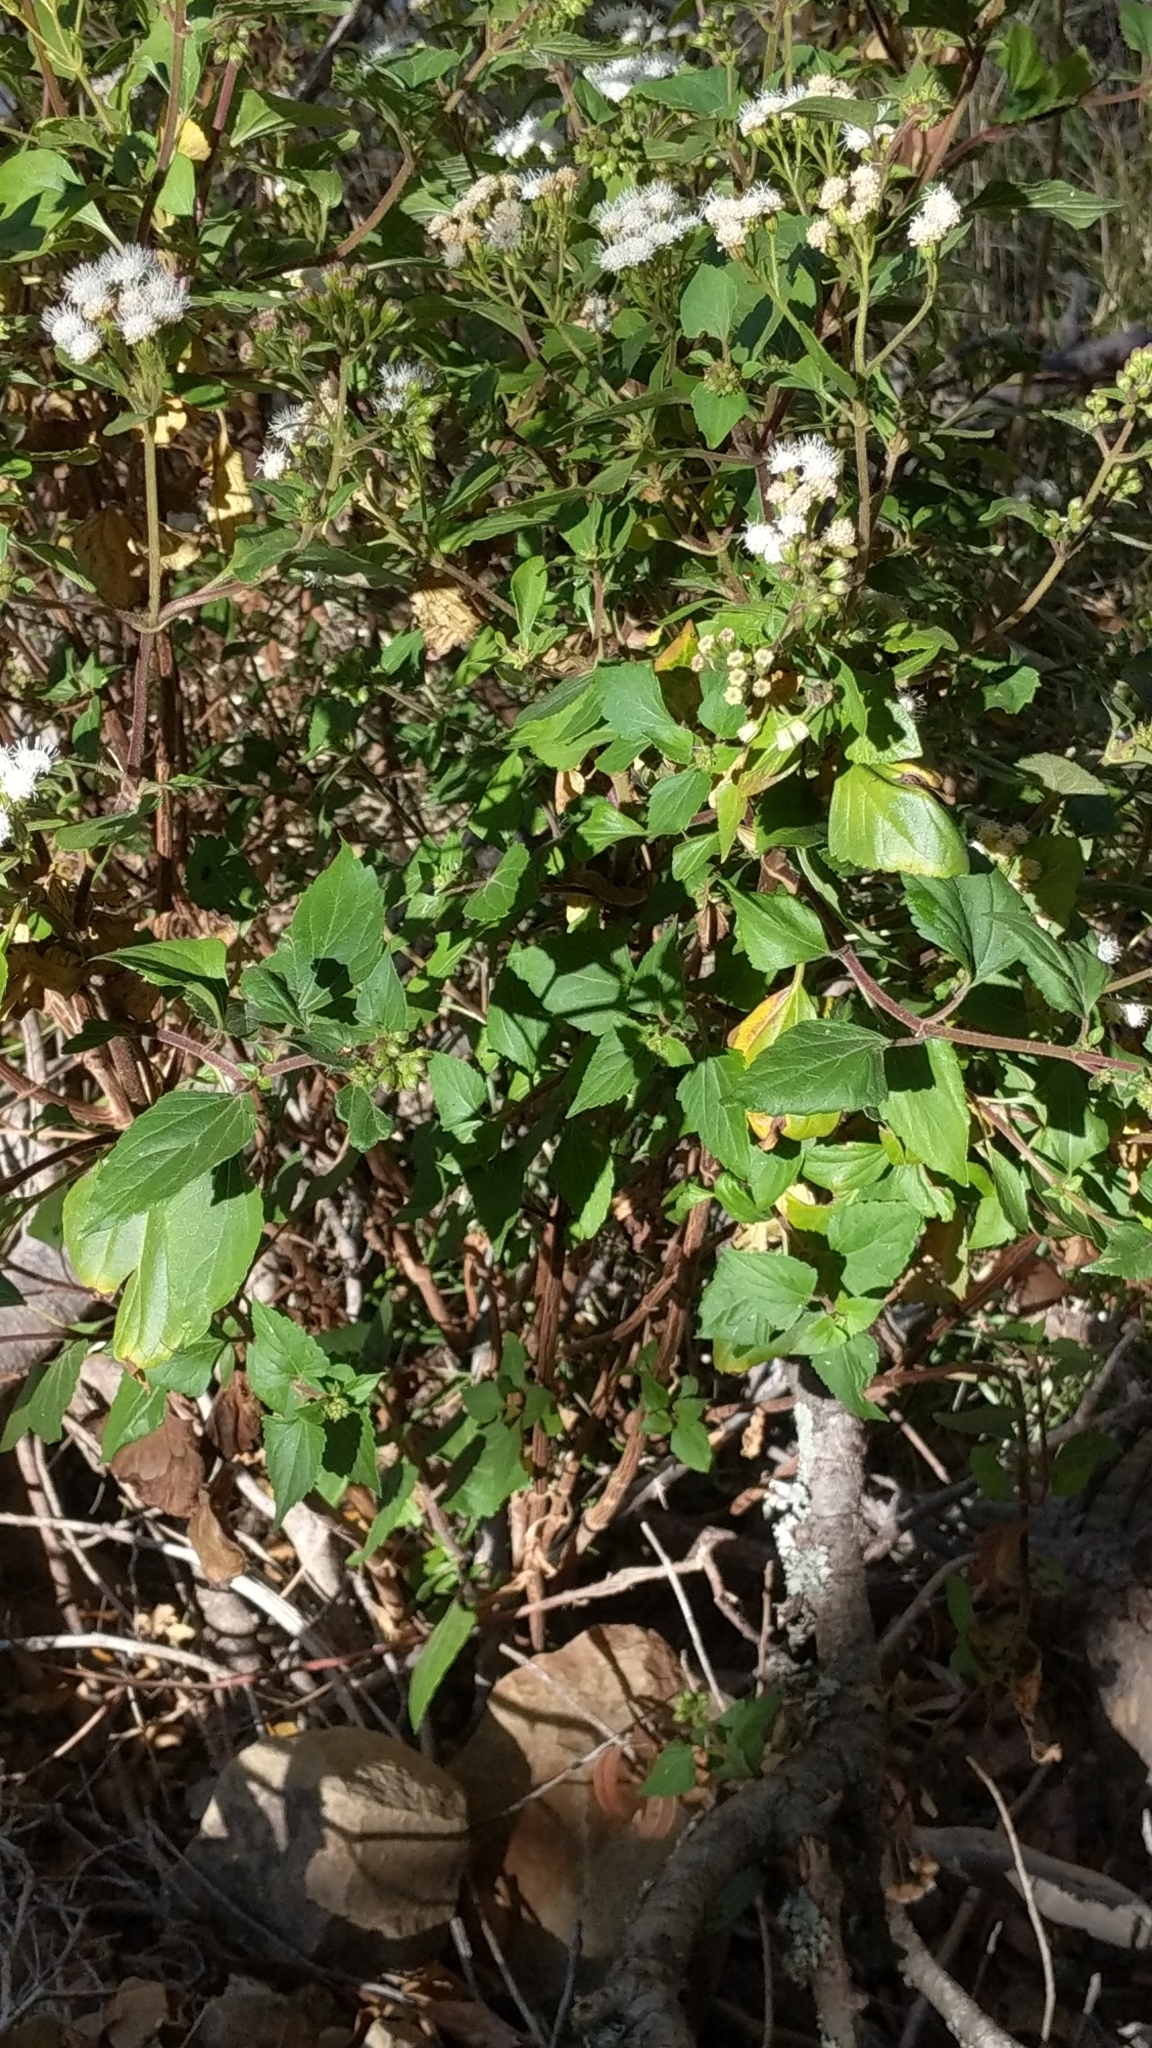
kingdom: Plantae
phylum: Tracheophyta
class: Magnoliopsida
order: Asterales
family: Asteraceae
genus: Ageratina
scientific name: Ageratina adenophora
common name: Sticky snakeroot
